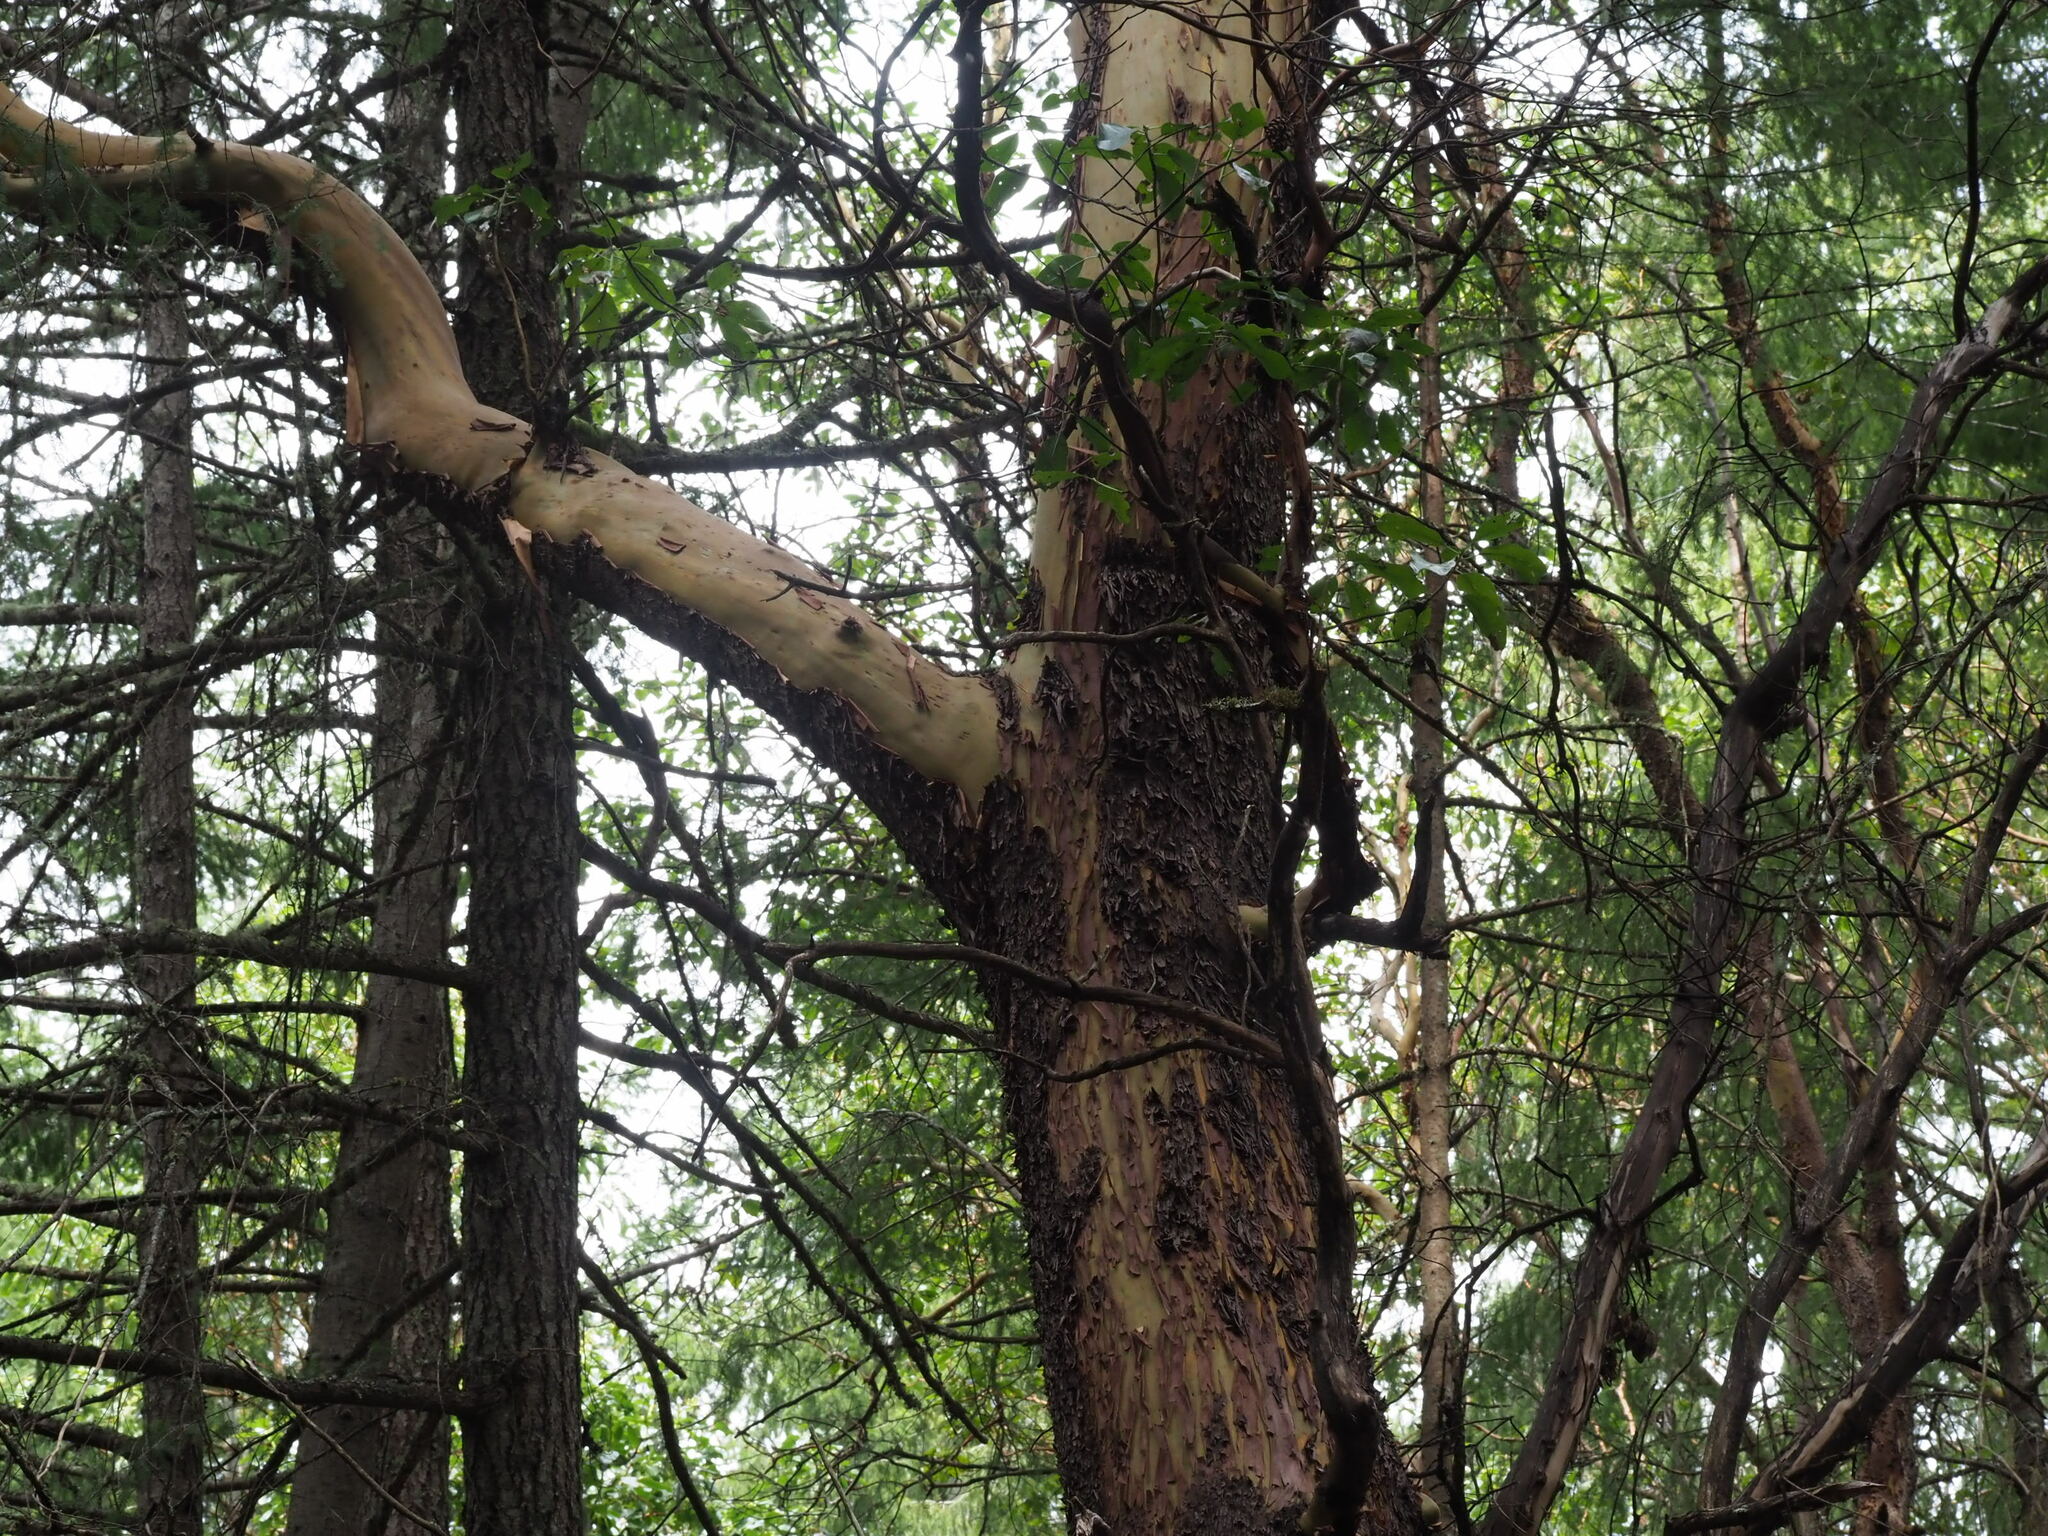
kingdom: Plantae
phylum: Tracheophyta
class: Magnoliopsida
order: Ericales
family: Ericaceae
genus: Arbutus
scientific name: Arbutus menziesii
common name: Pacific madrone
